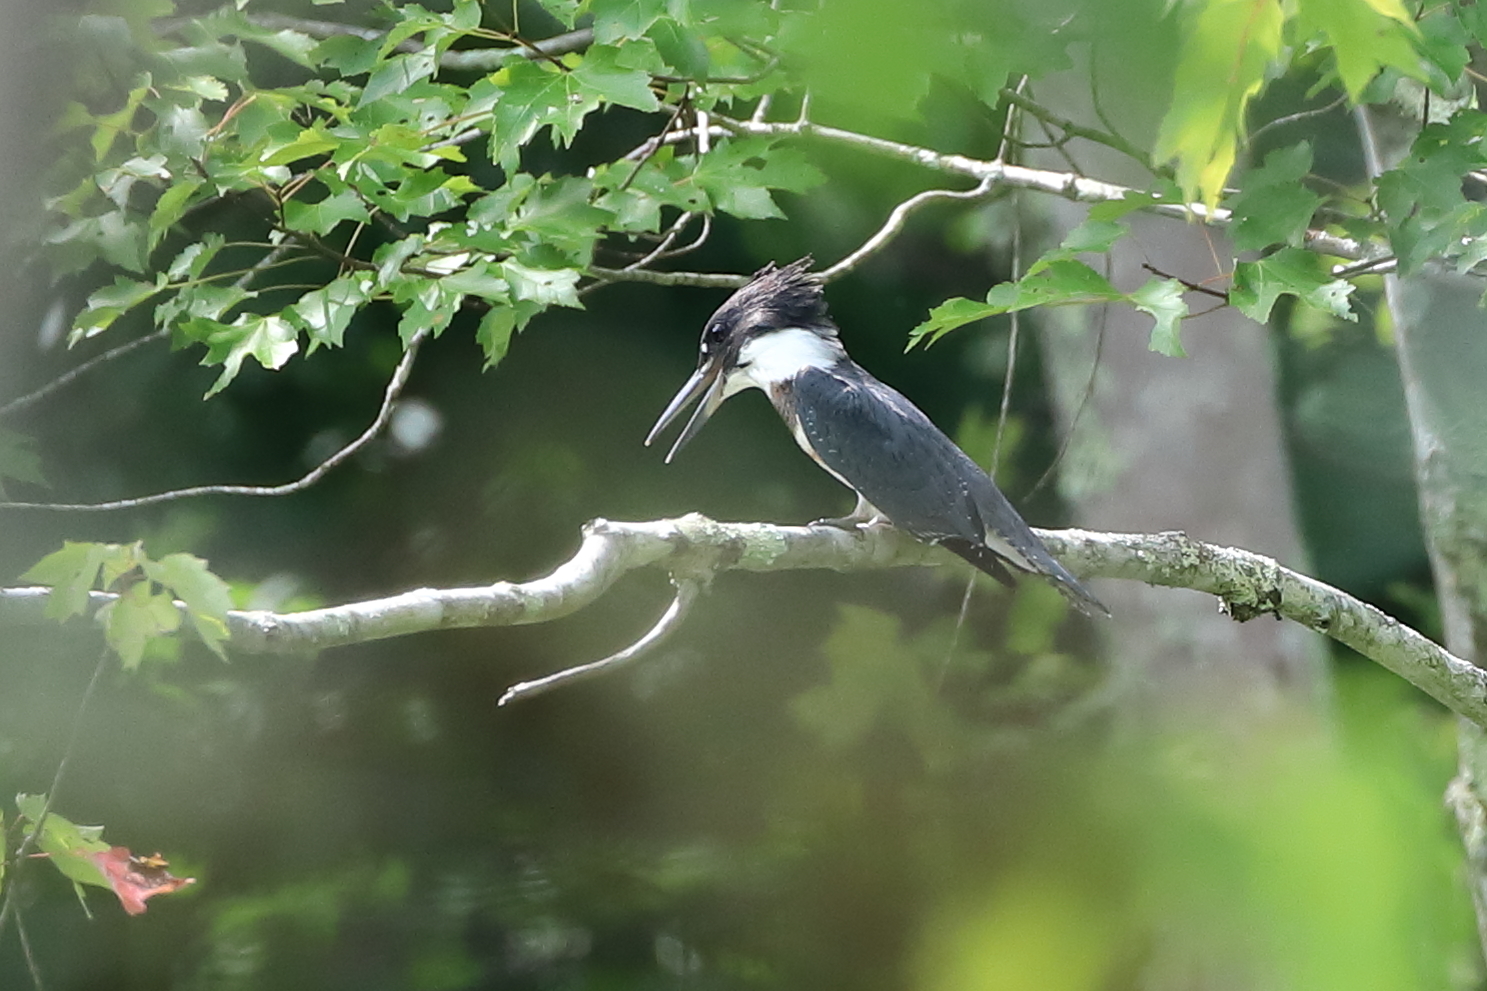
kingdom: Animalia
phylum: Chordata
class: Aves
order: Coraciiformes
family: Alcedinidae
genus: Megaceryle
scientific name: Megaceryle alcyon
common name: Belted kingfisher
